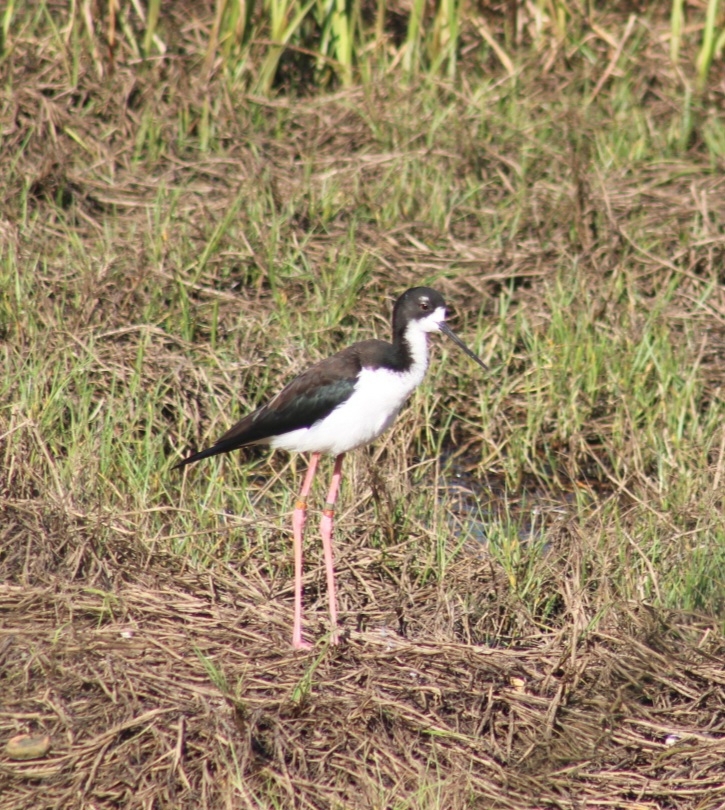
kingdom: Animalia
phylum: Chordata
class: Aves
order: Charadriiformes
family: Recurvirostridae
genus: Himantopus
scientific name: Himantopus mexicanus
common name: Black-necked stilt
